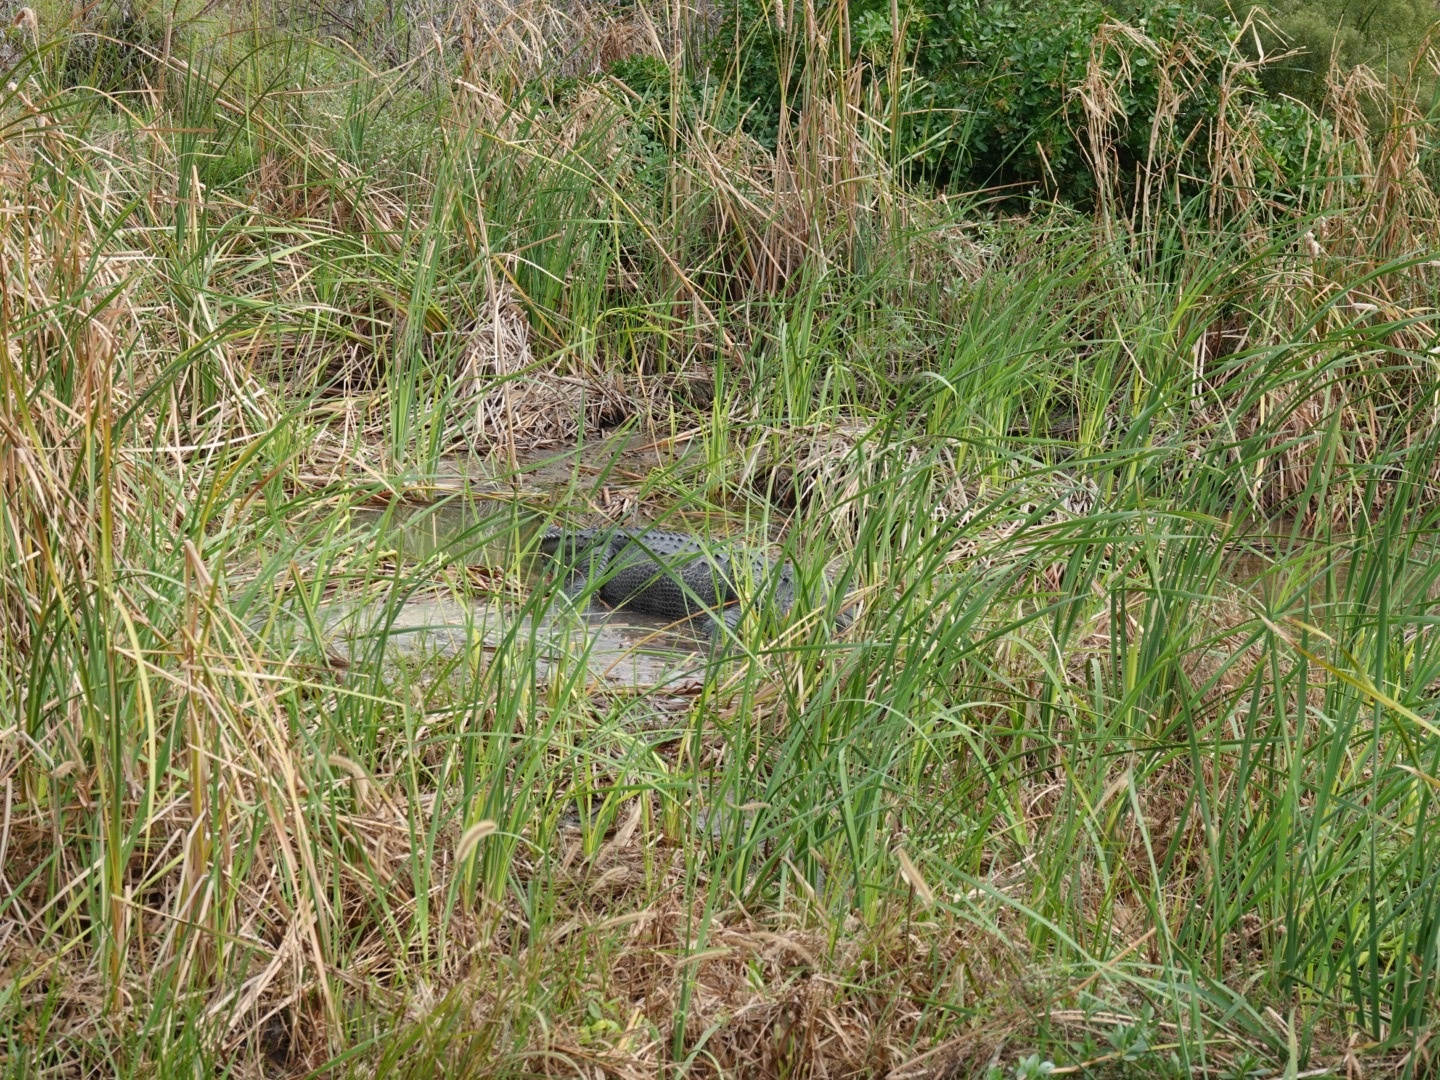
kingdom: Animalia
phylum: Chordata
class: Crocodylia
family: Alligatoridae
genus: Alligator
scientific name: Alligator mississippiensis
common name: American alligator
